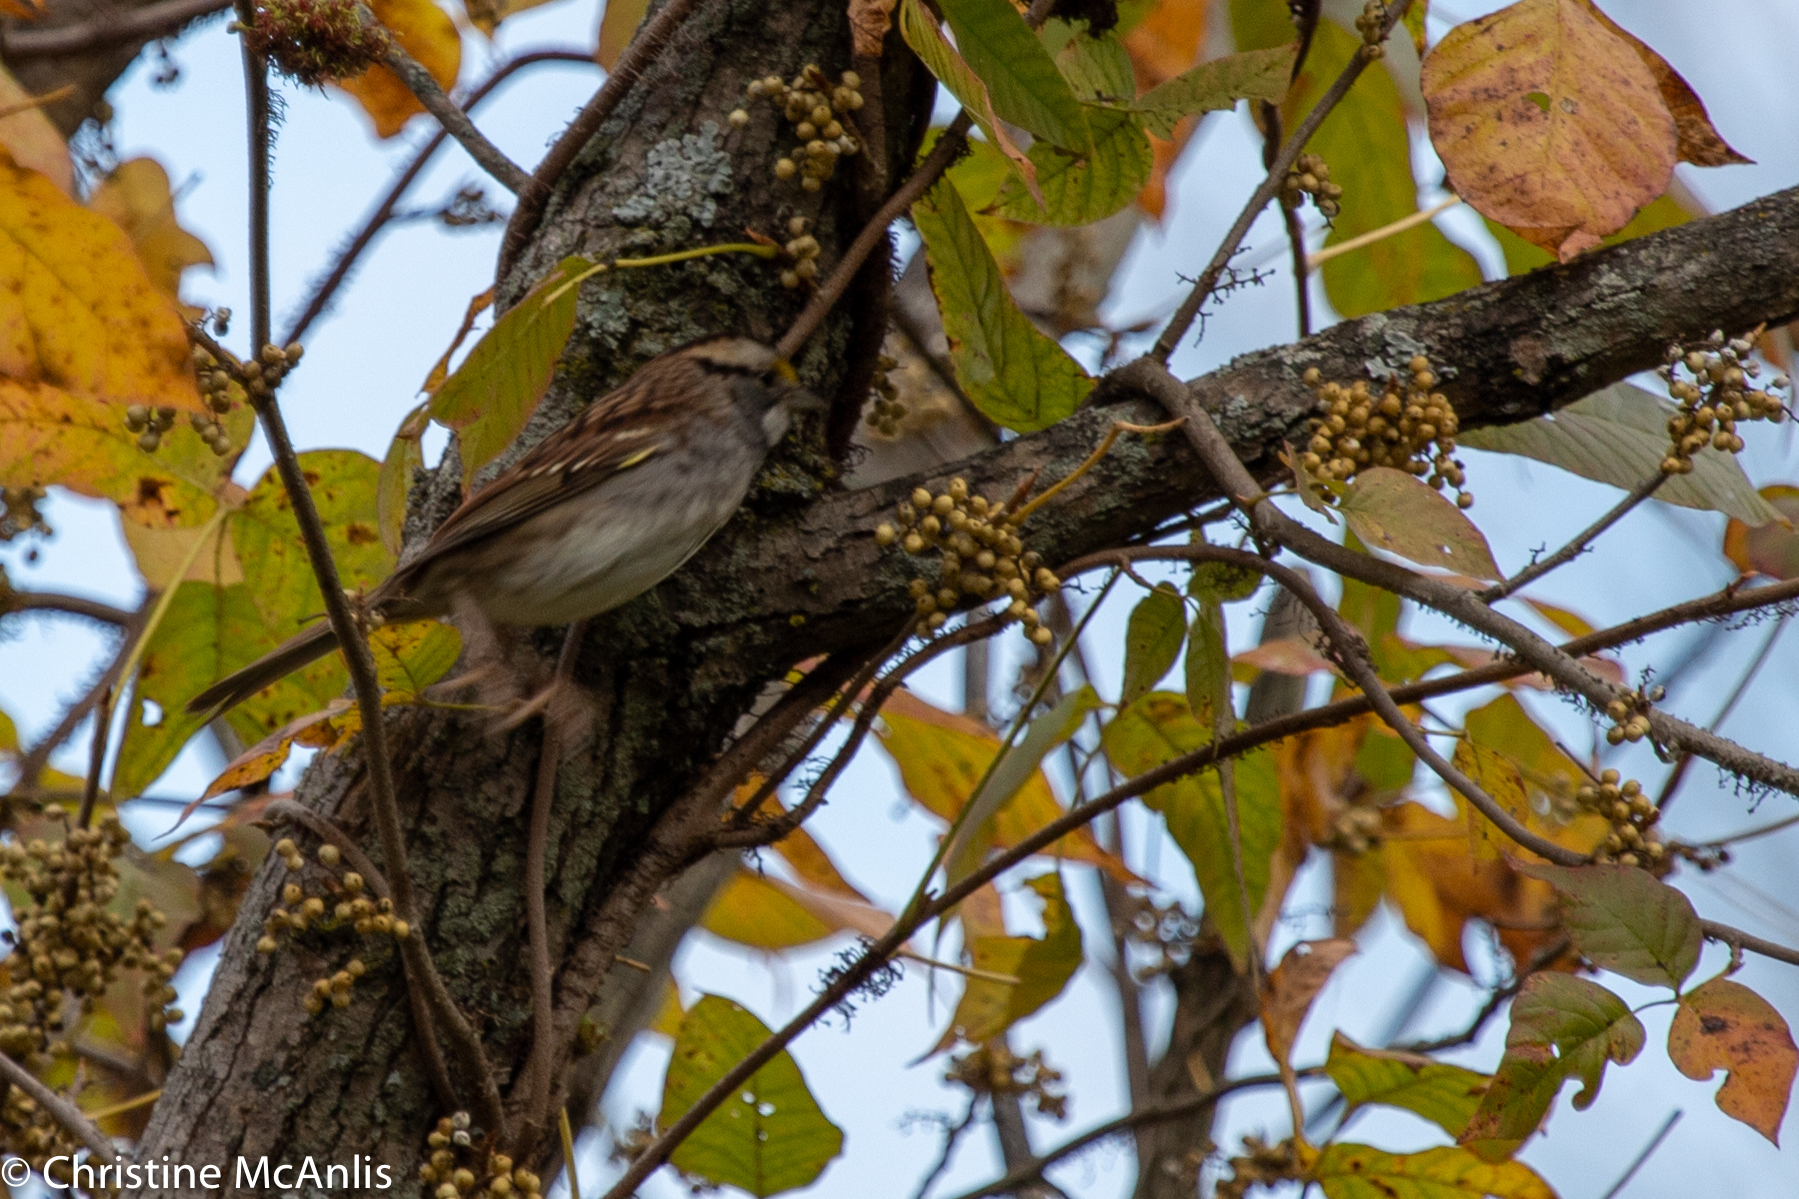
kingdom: Animalia
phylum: Chordata
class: Aves
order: Passeriformes
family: Passerellidae
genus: Zonotrichia
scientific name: Zonotrichia albicollis
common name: White-throated sparrow
